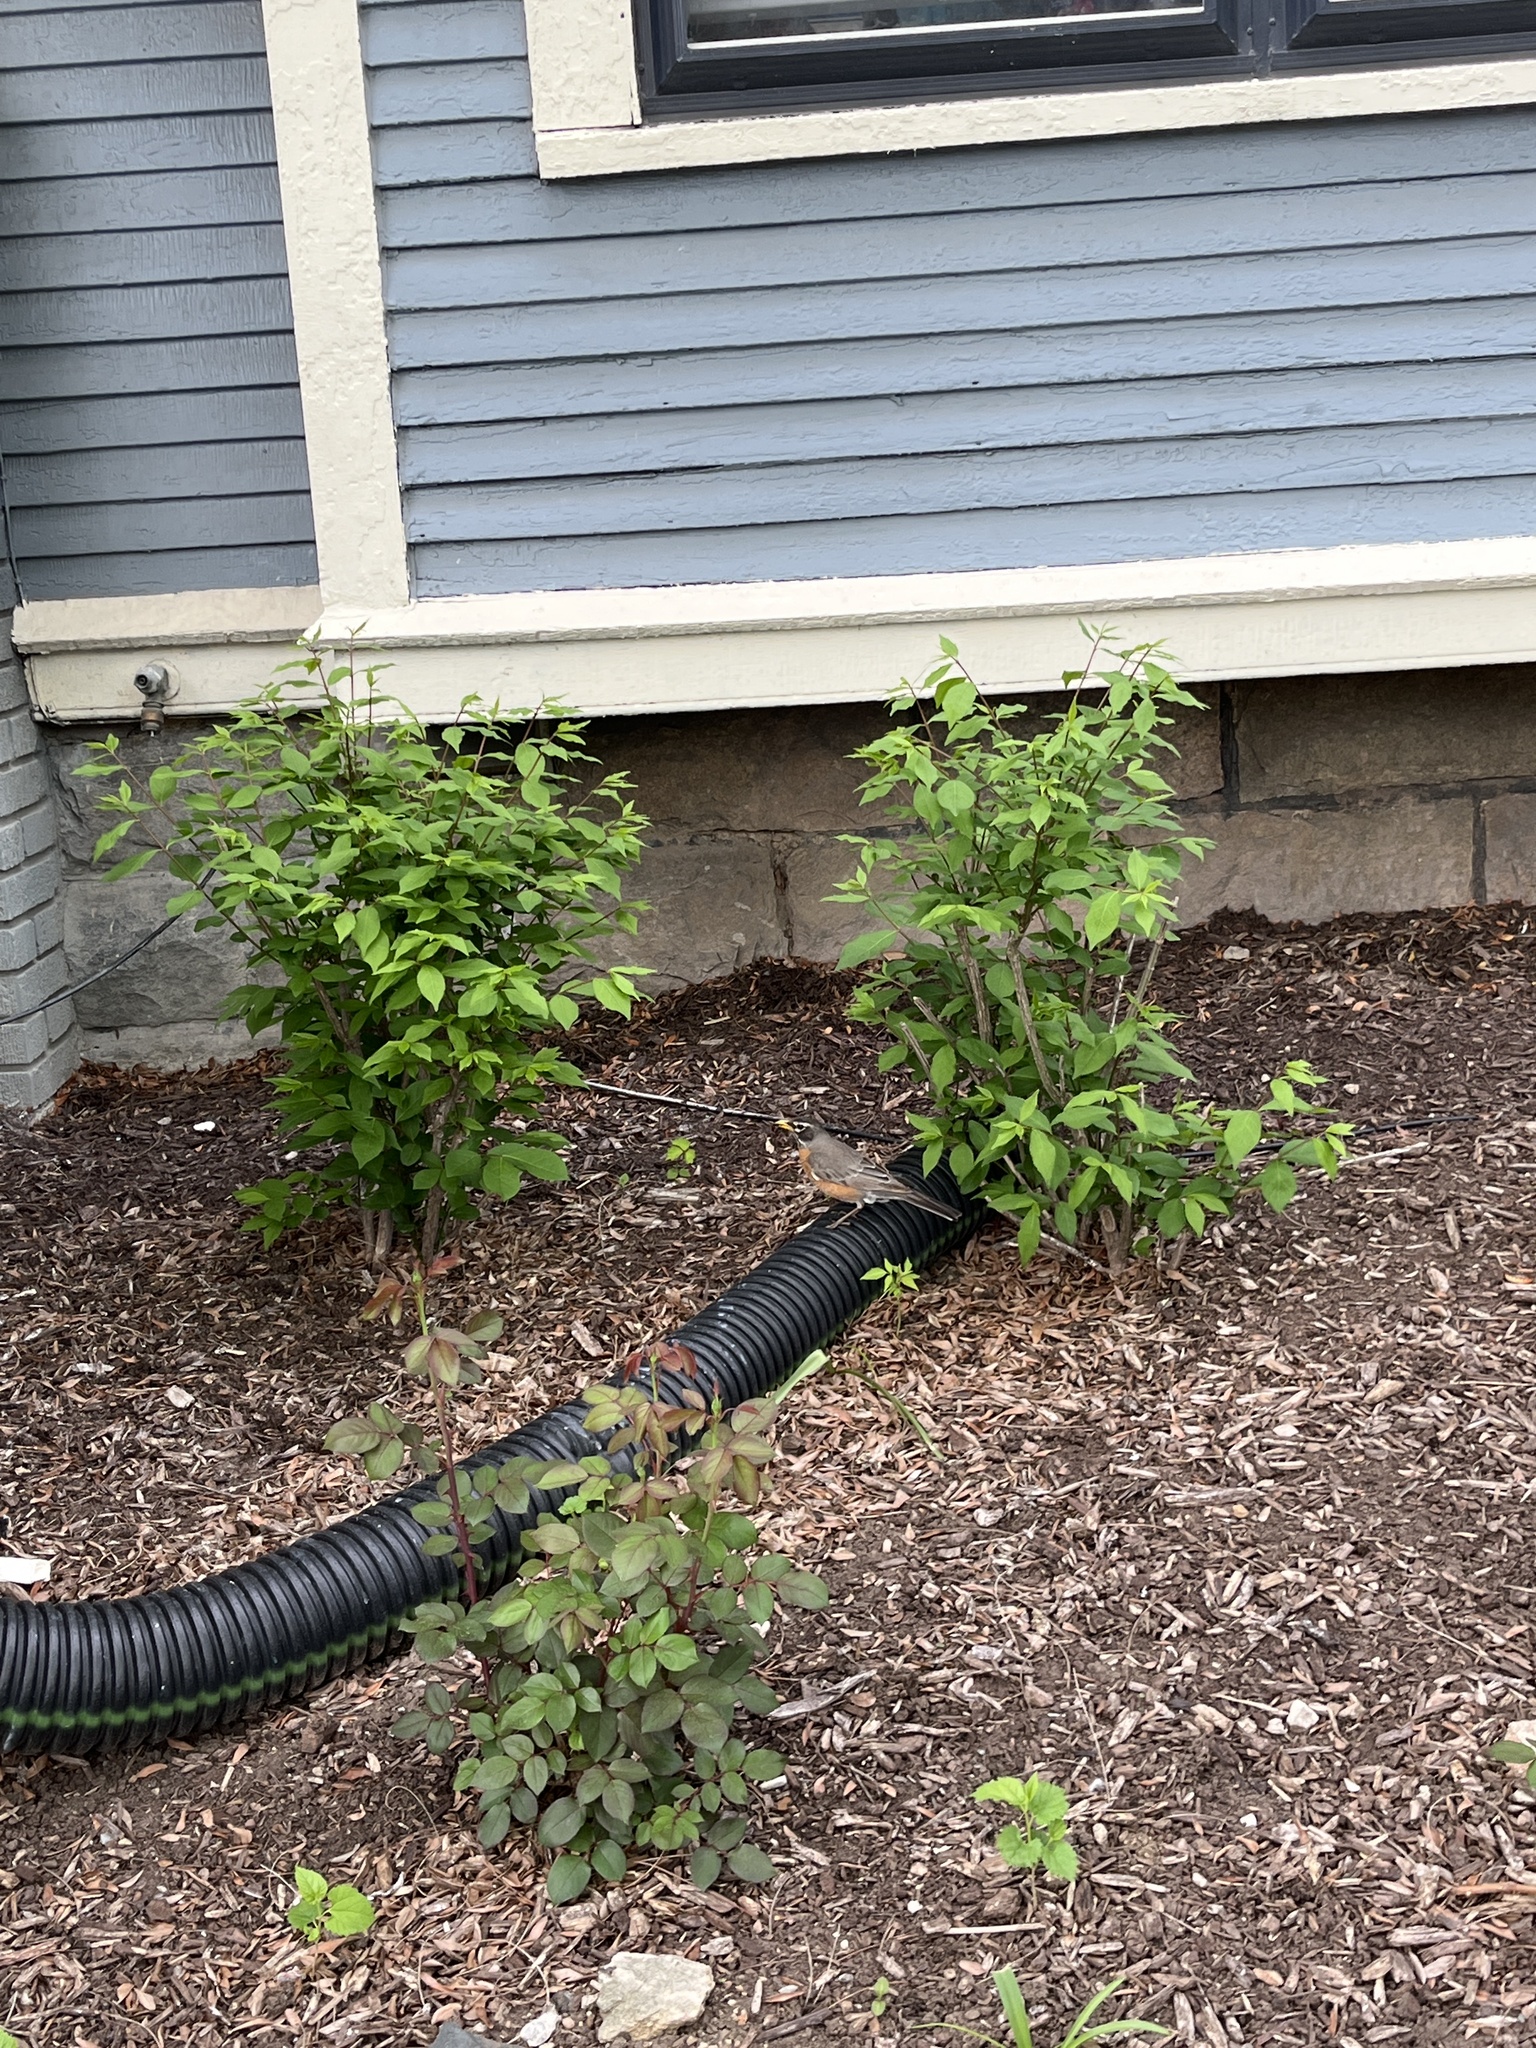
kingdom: Animalia
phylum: Chordata
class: Aves
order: Passeriformes
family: Turdidae
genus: Turdus
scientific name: Turdus migratorius
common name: American robin
